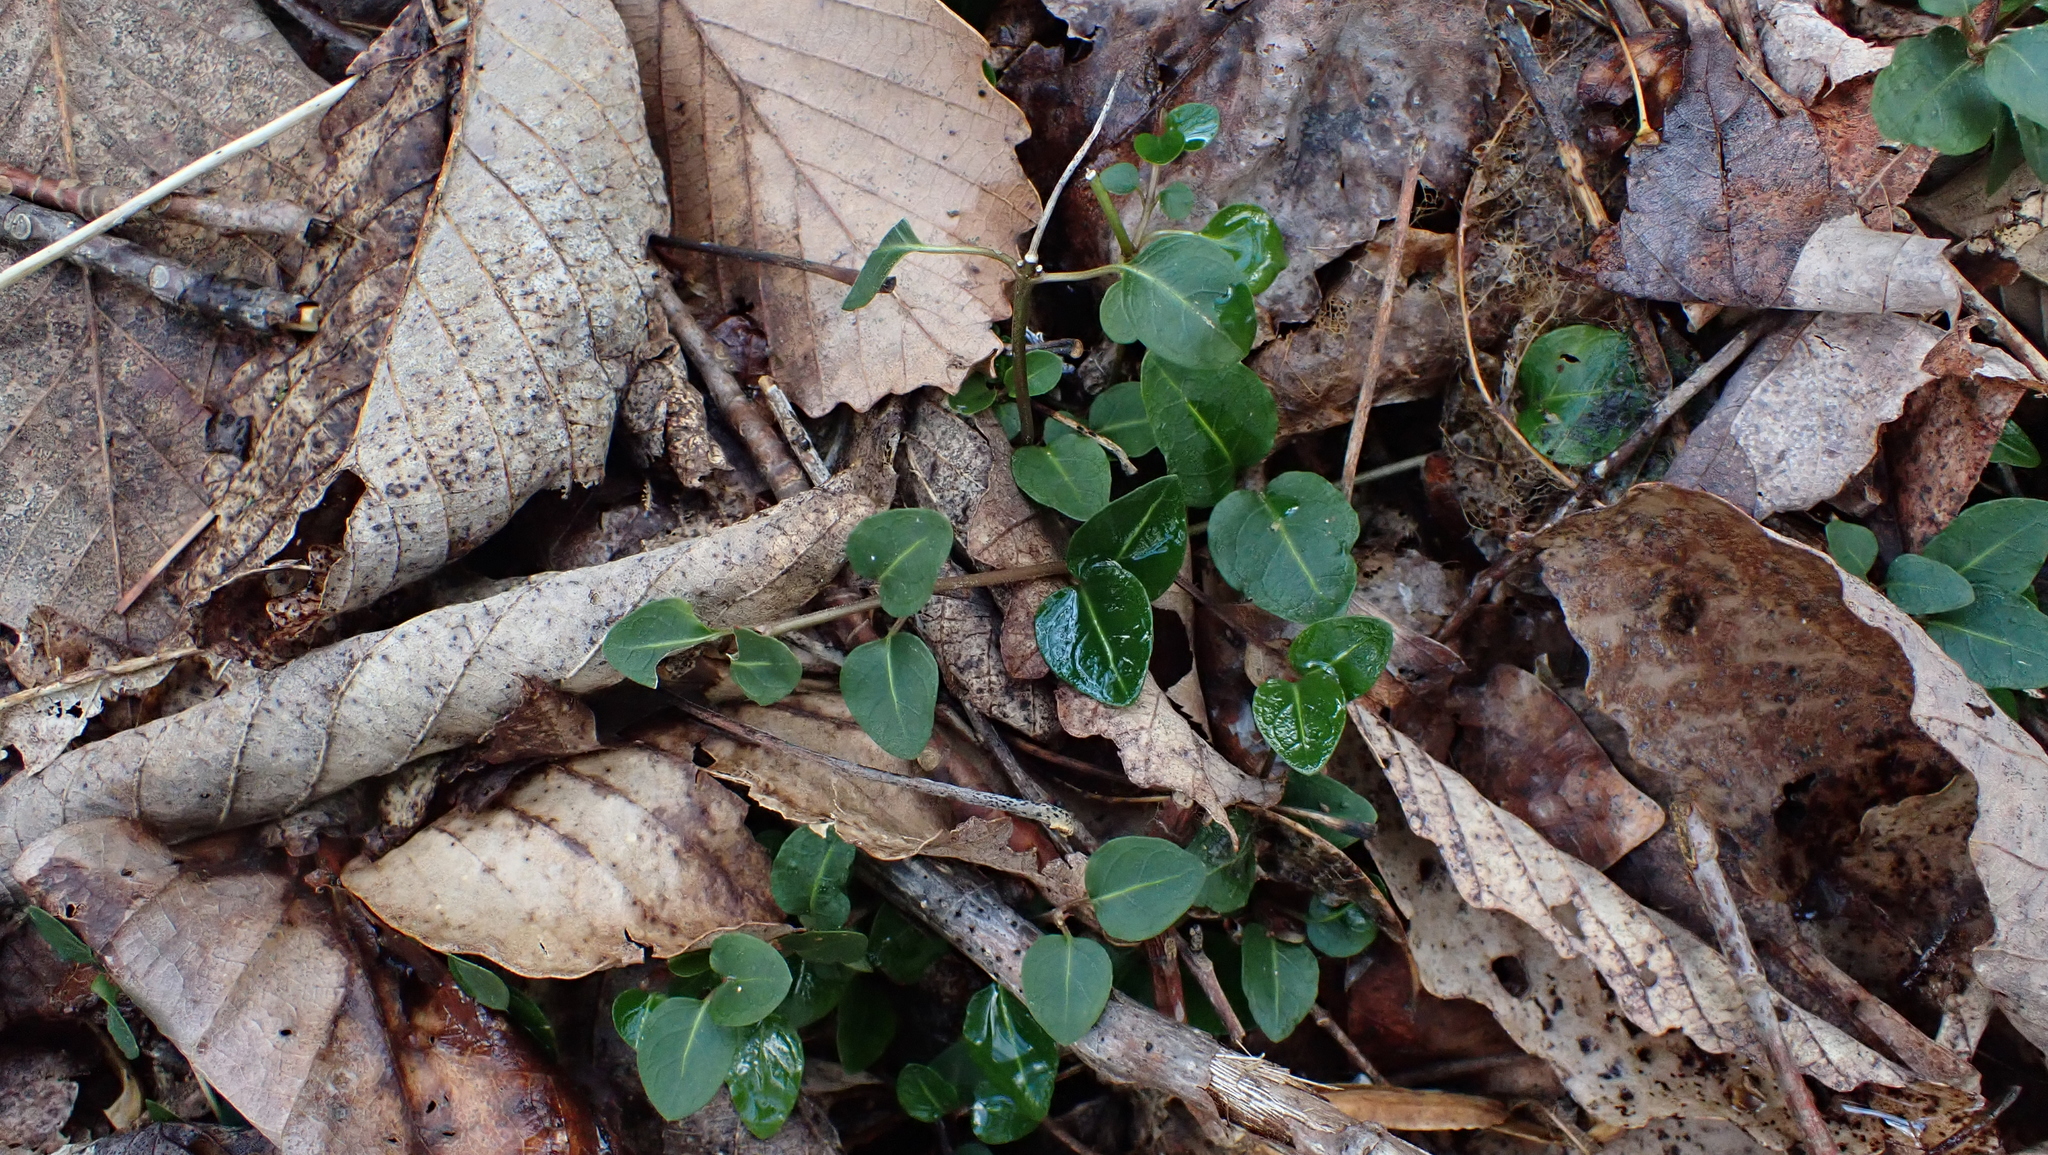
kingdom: Plantae
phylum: Tracheophyta
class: Magnoliopsida
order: Gentianales
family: Rubiaceae
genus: Mitchella
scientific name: Mitchella repens
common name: Partridge-berry
